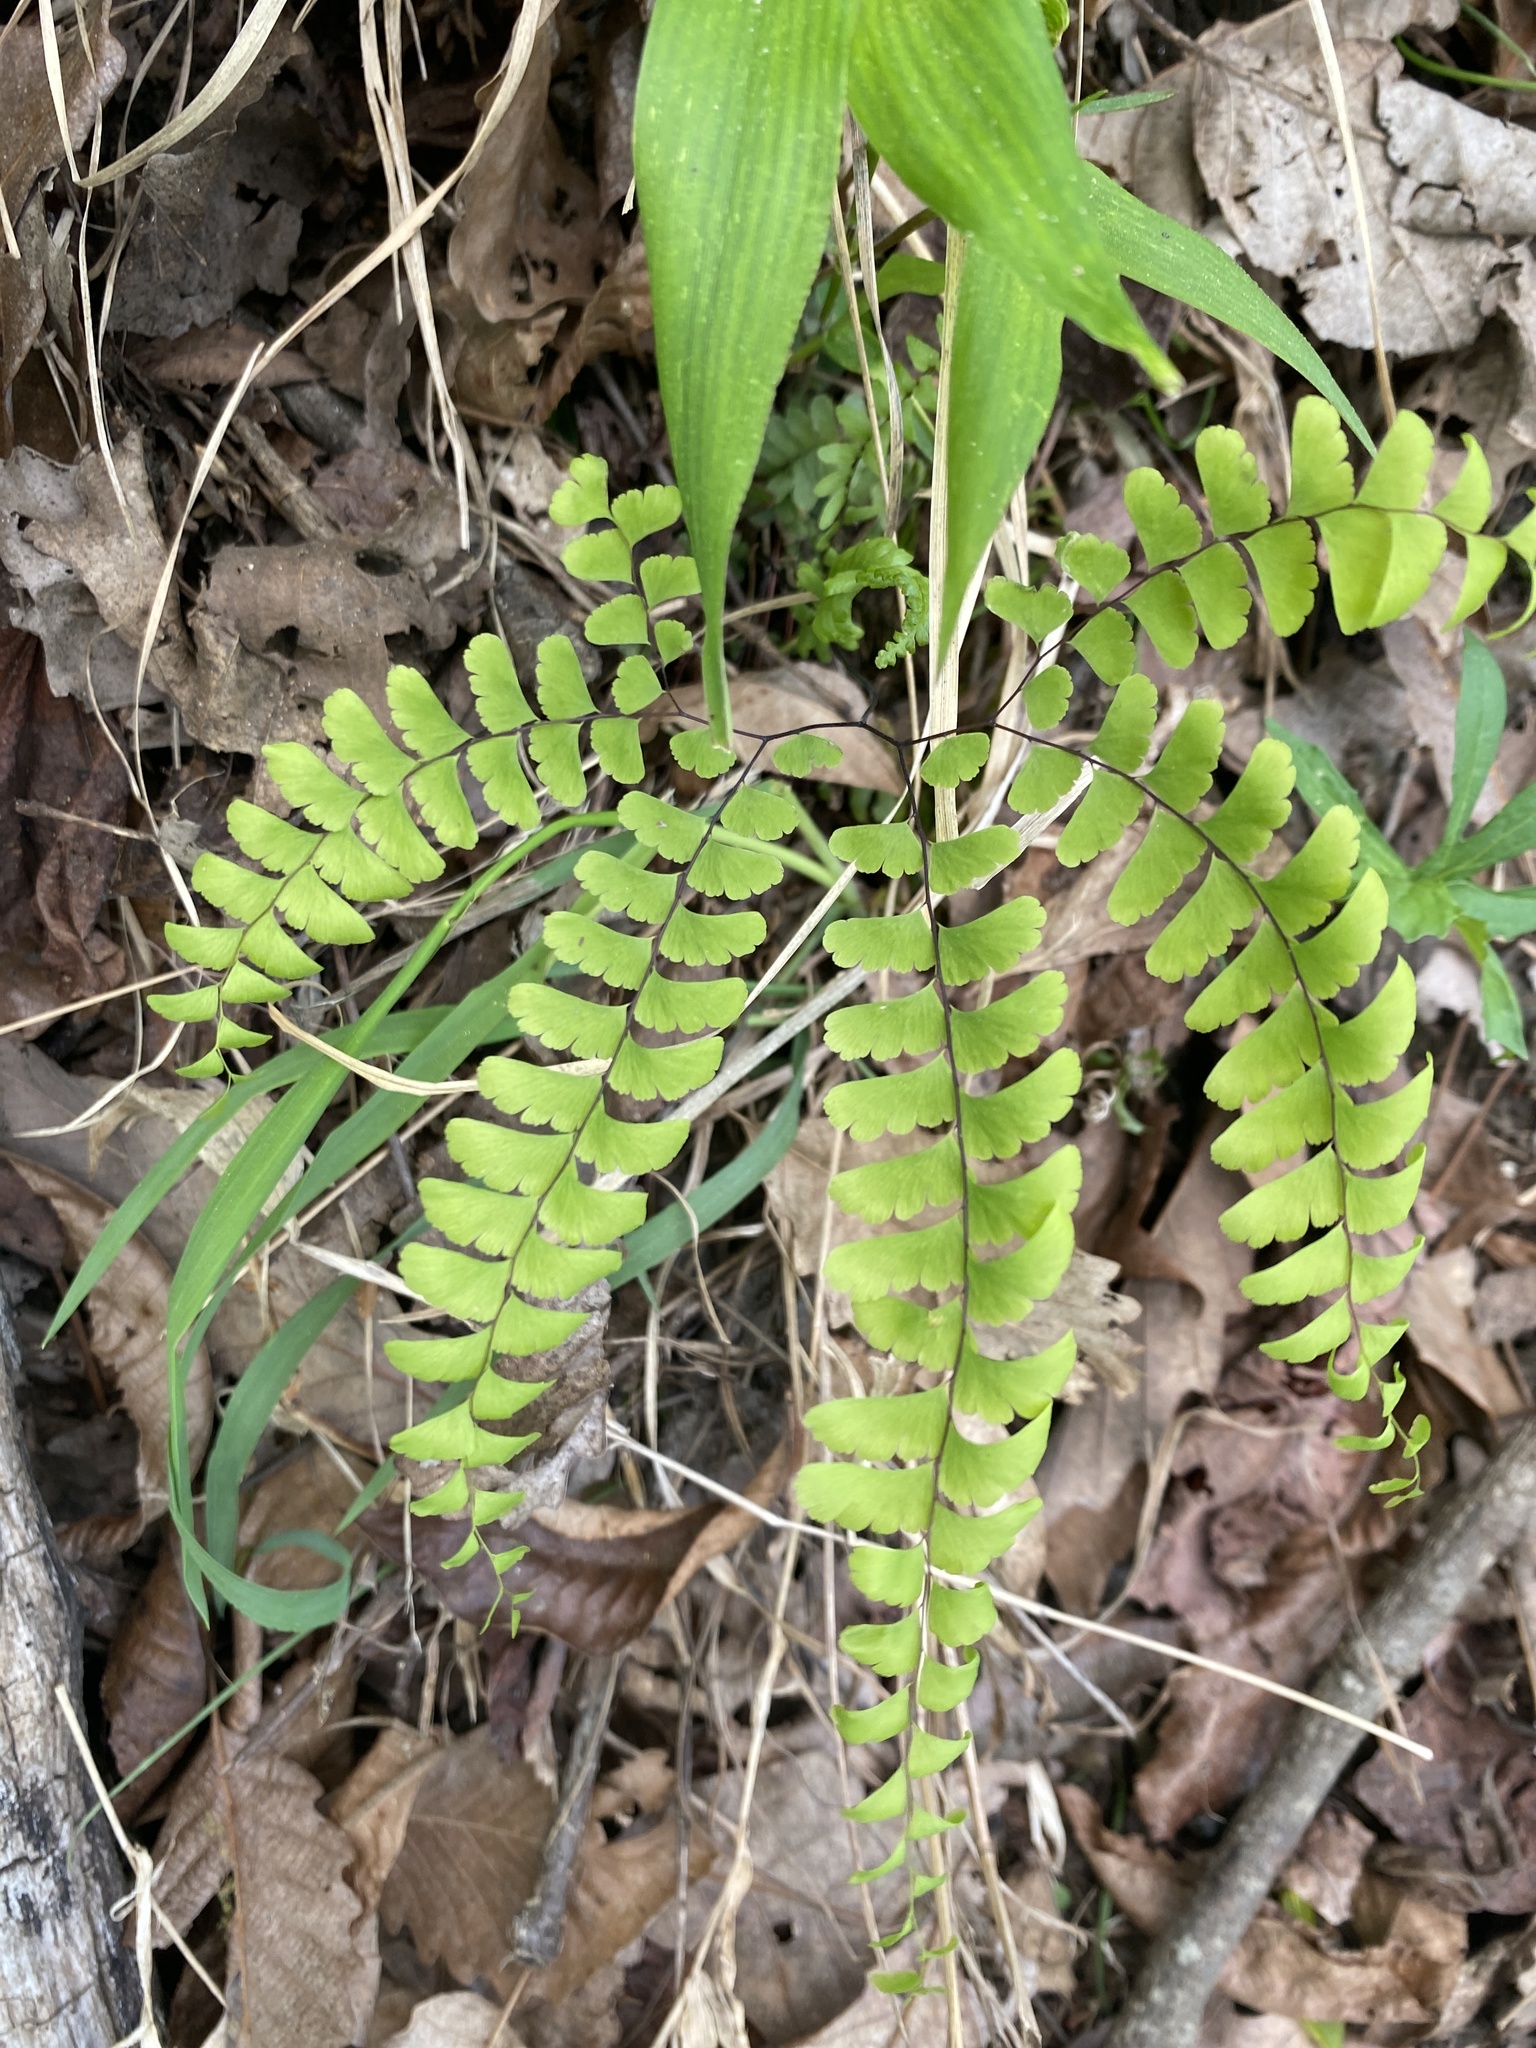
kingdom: Plantae
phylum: Tracheophyta
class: Polypodiopsida
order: Polypodiales
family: Pteridaceae
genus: Adiantum
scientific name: Adiantum pedatum
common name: Five-finger fern
